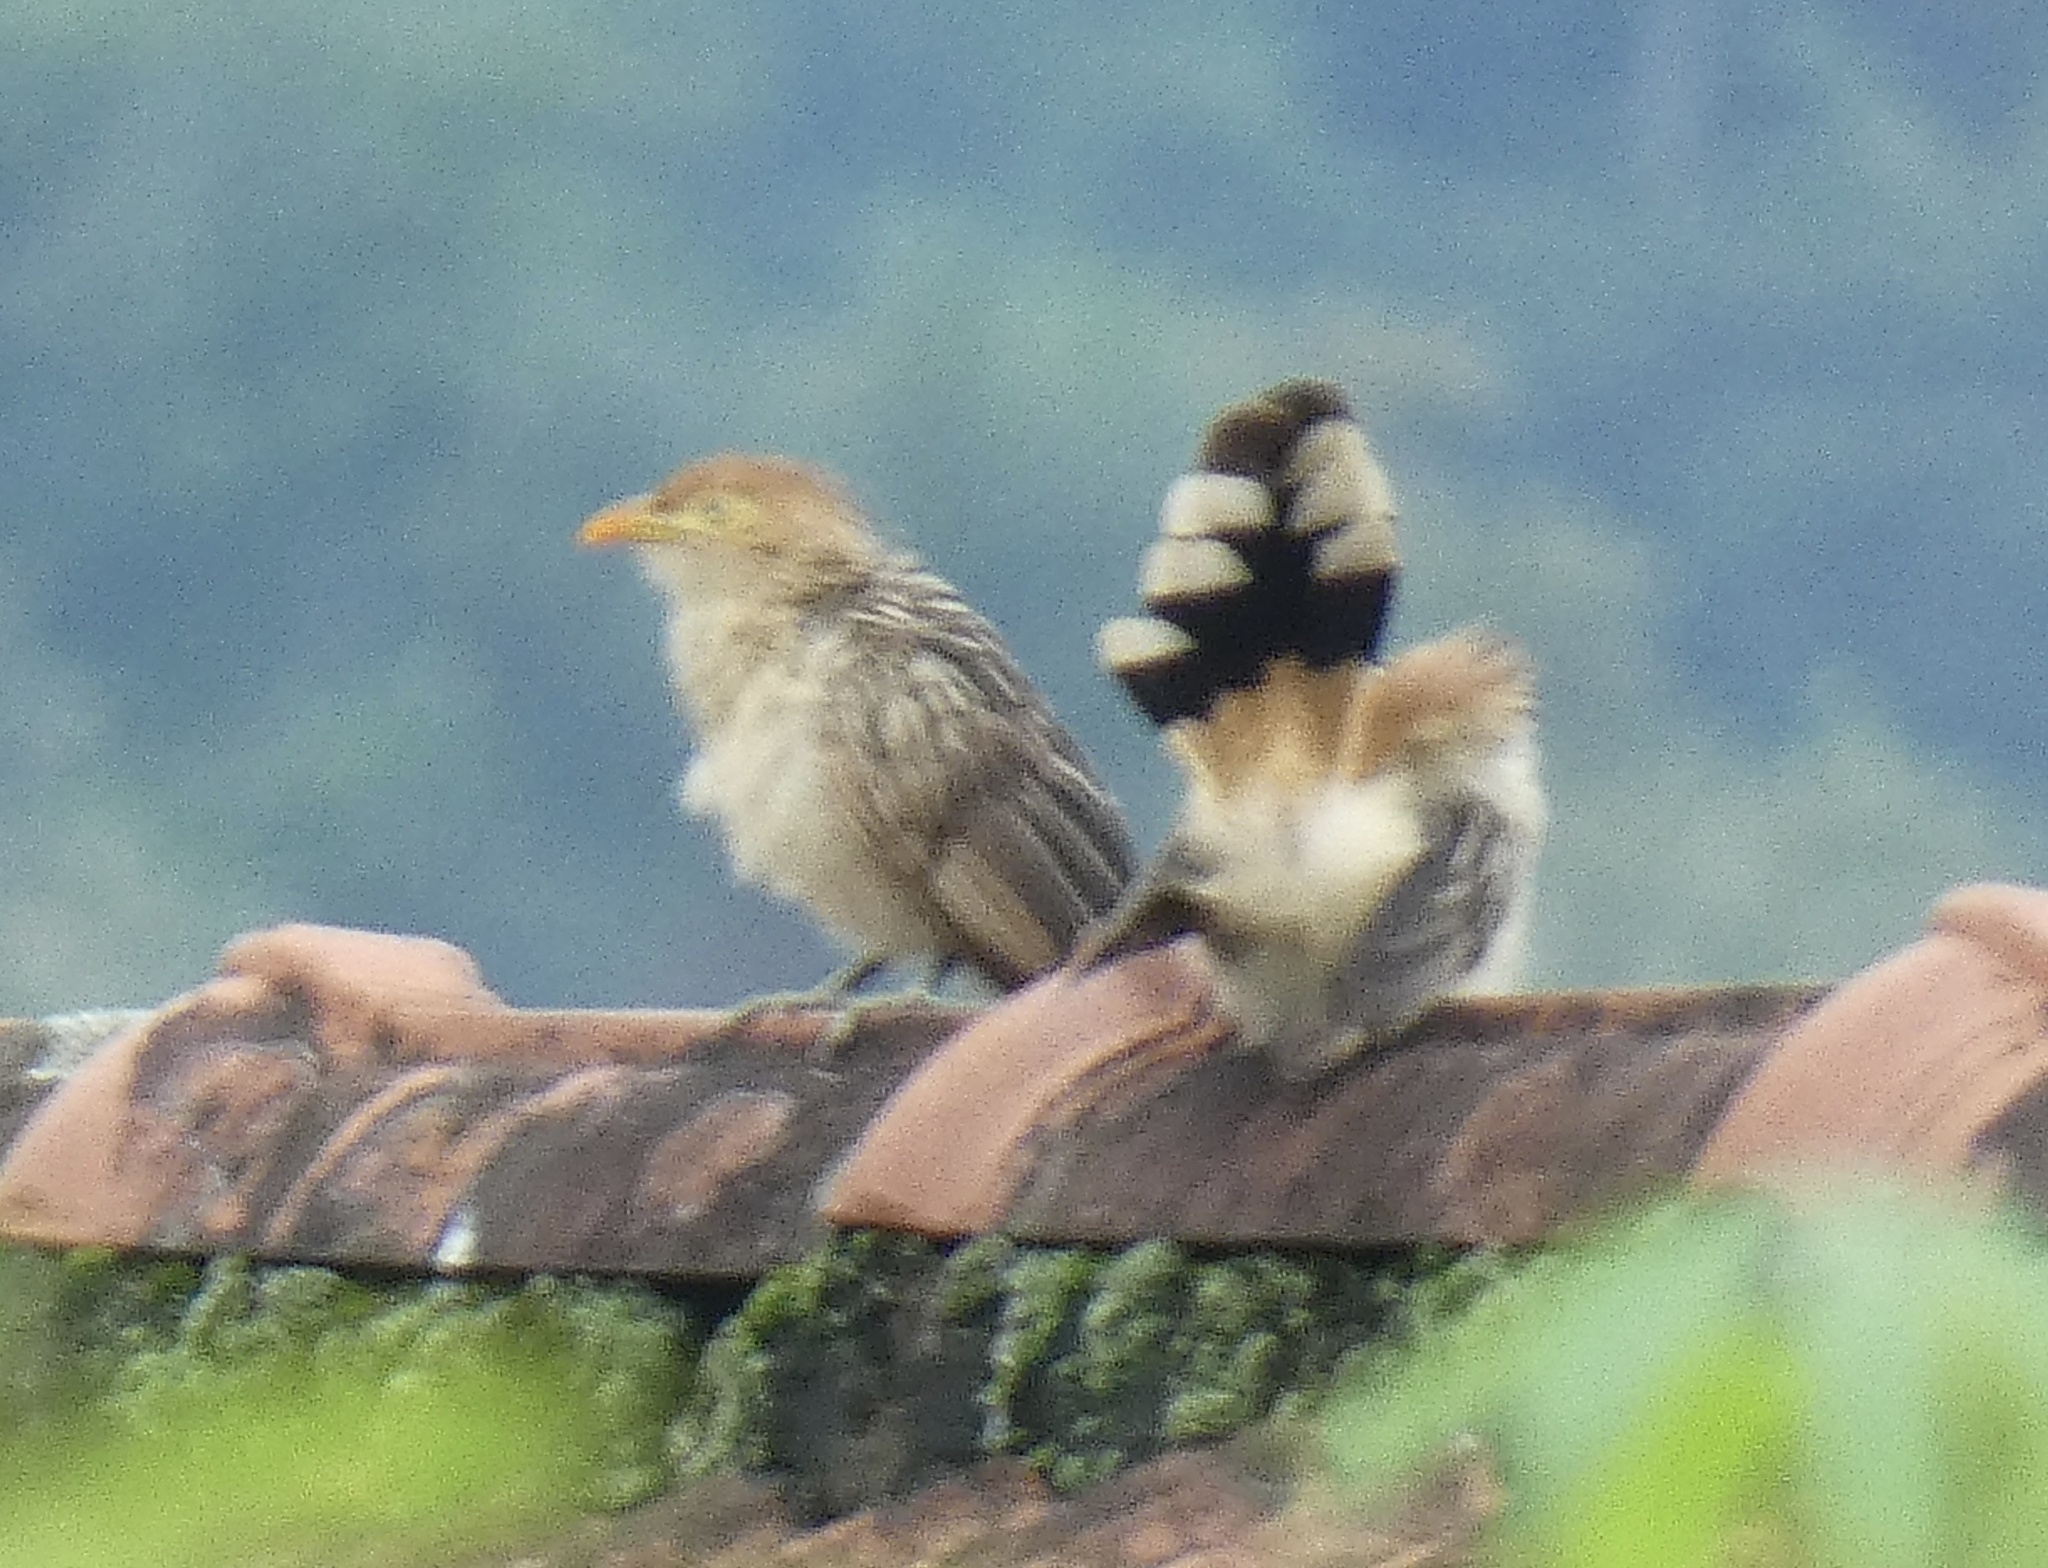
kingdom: Animalia
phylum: Chordata
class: Aves
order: Cuculiformes
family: Cuculidae
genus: Guira
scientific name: Guira guira
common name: Guira cuckoo
